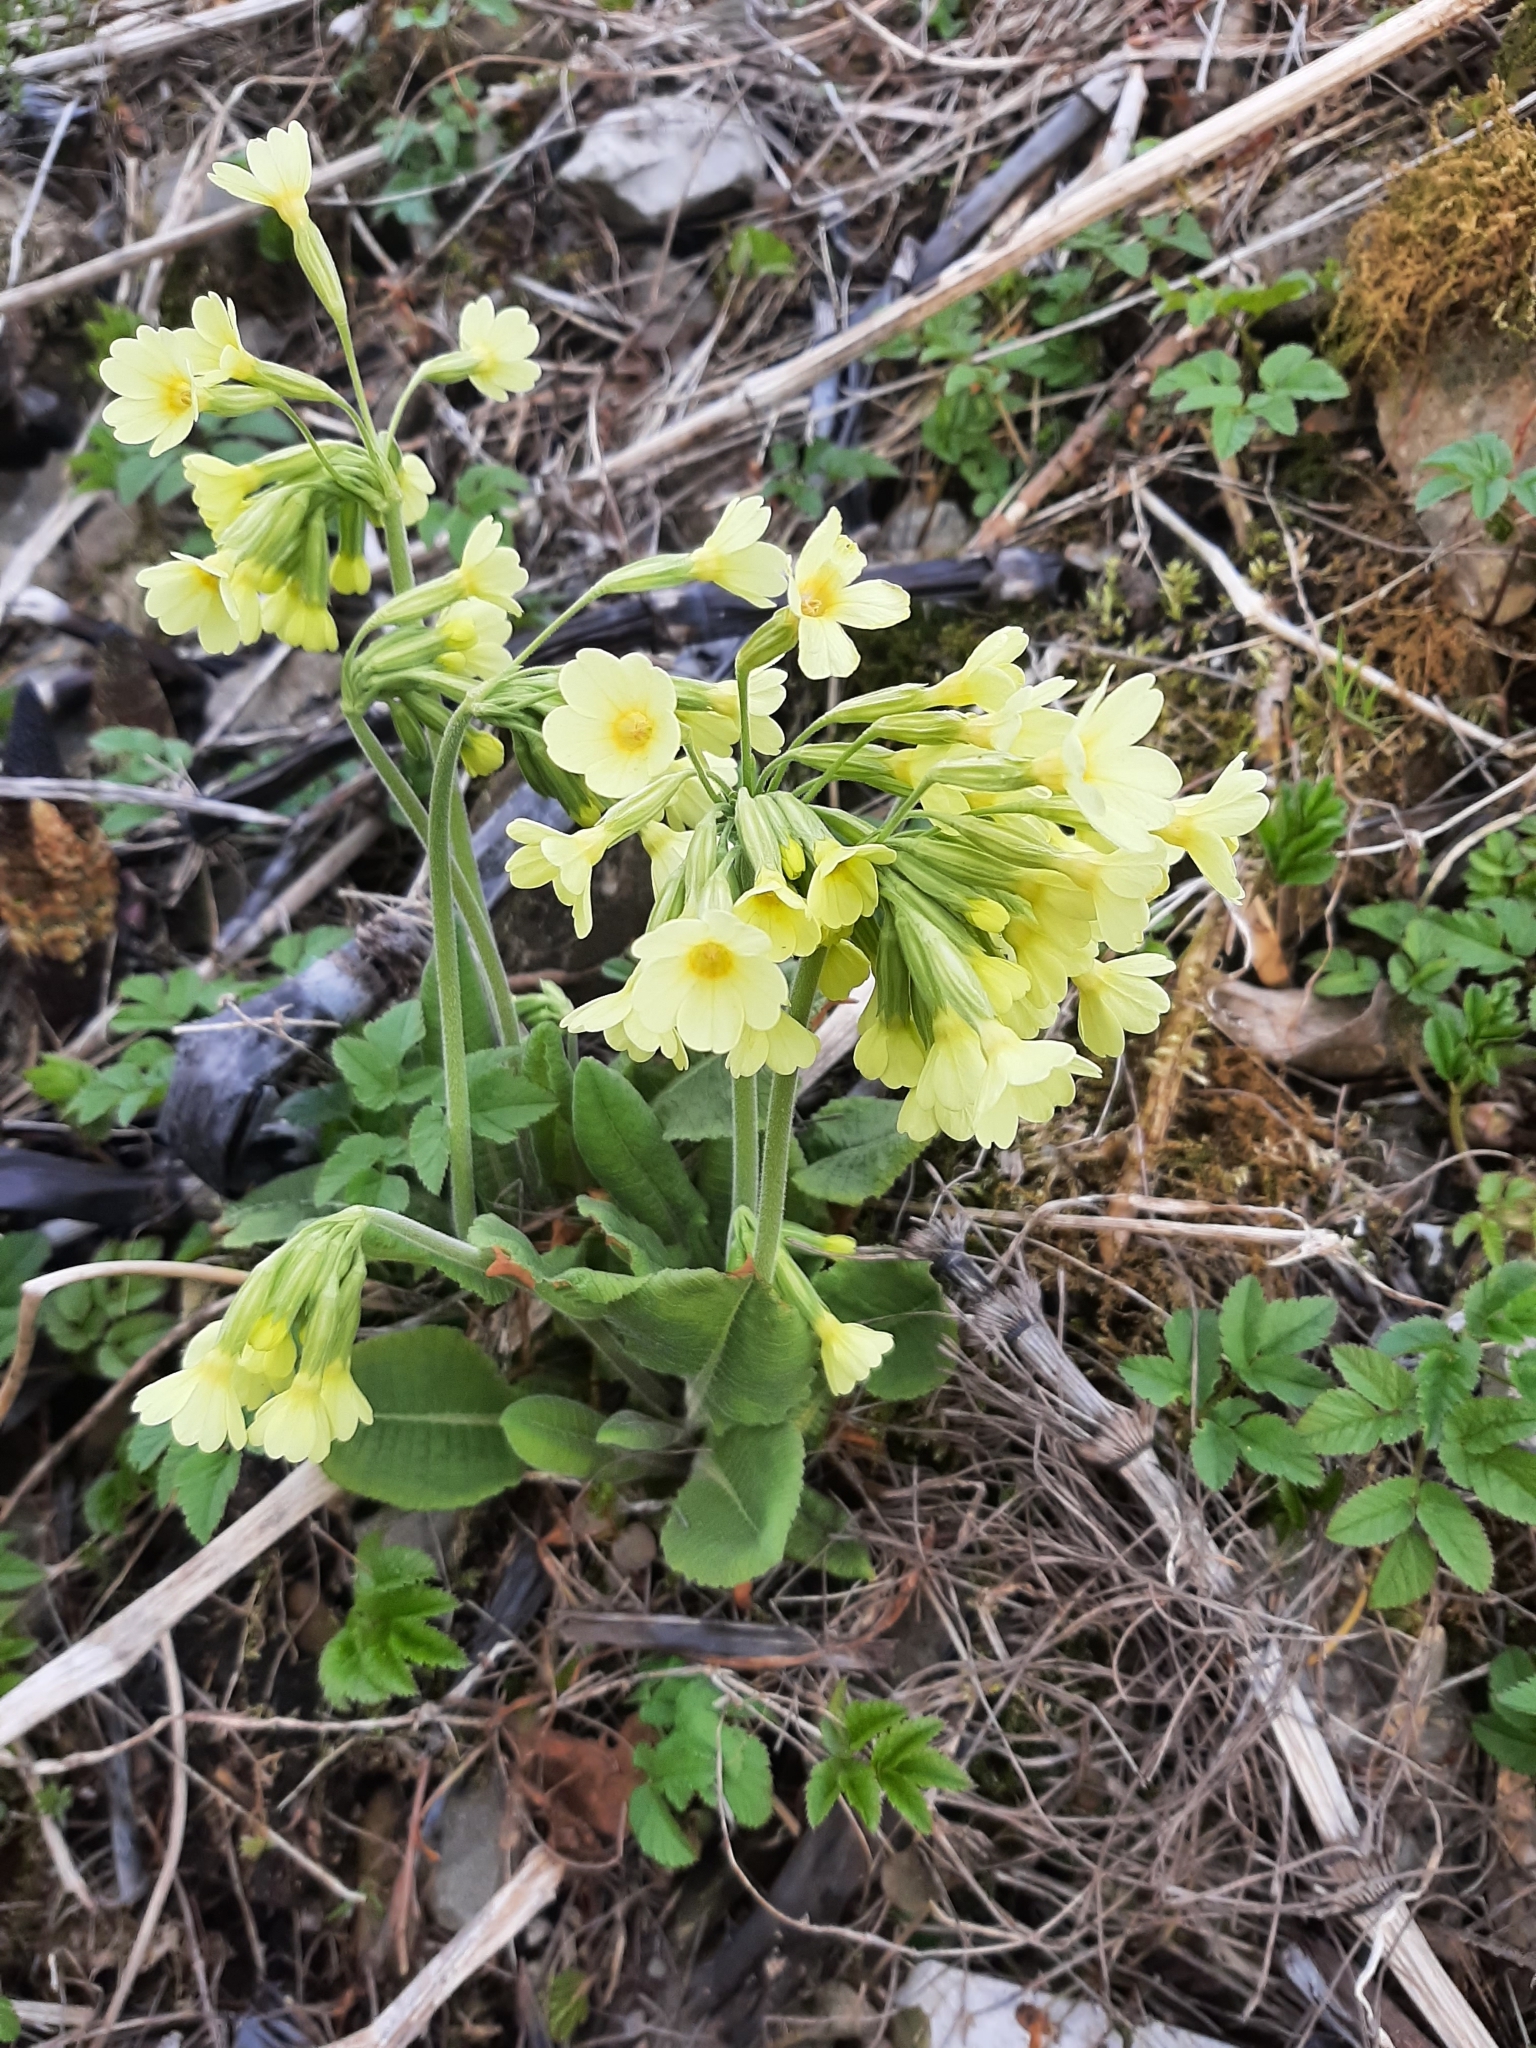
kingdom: Plantae
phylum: Tracheophyta
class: Magnoliopsida
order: Ericales
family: Primulaceae
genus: Primula
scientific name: Primula elatior
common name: Oxlip
